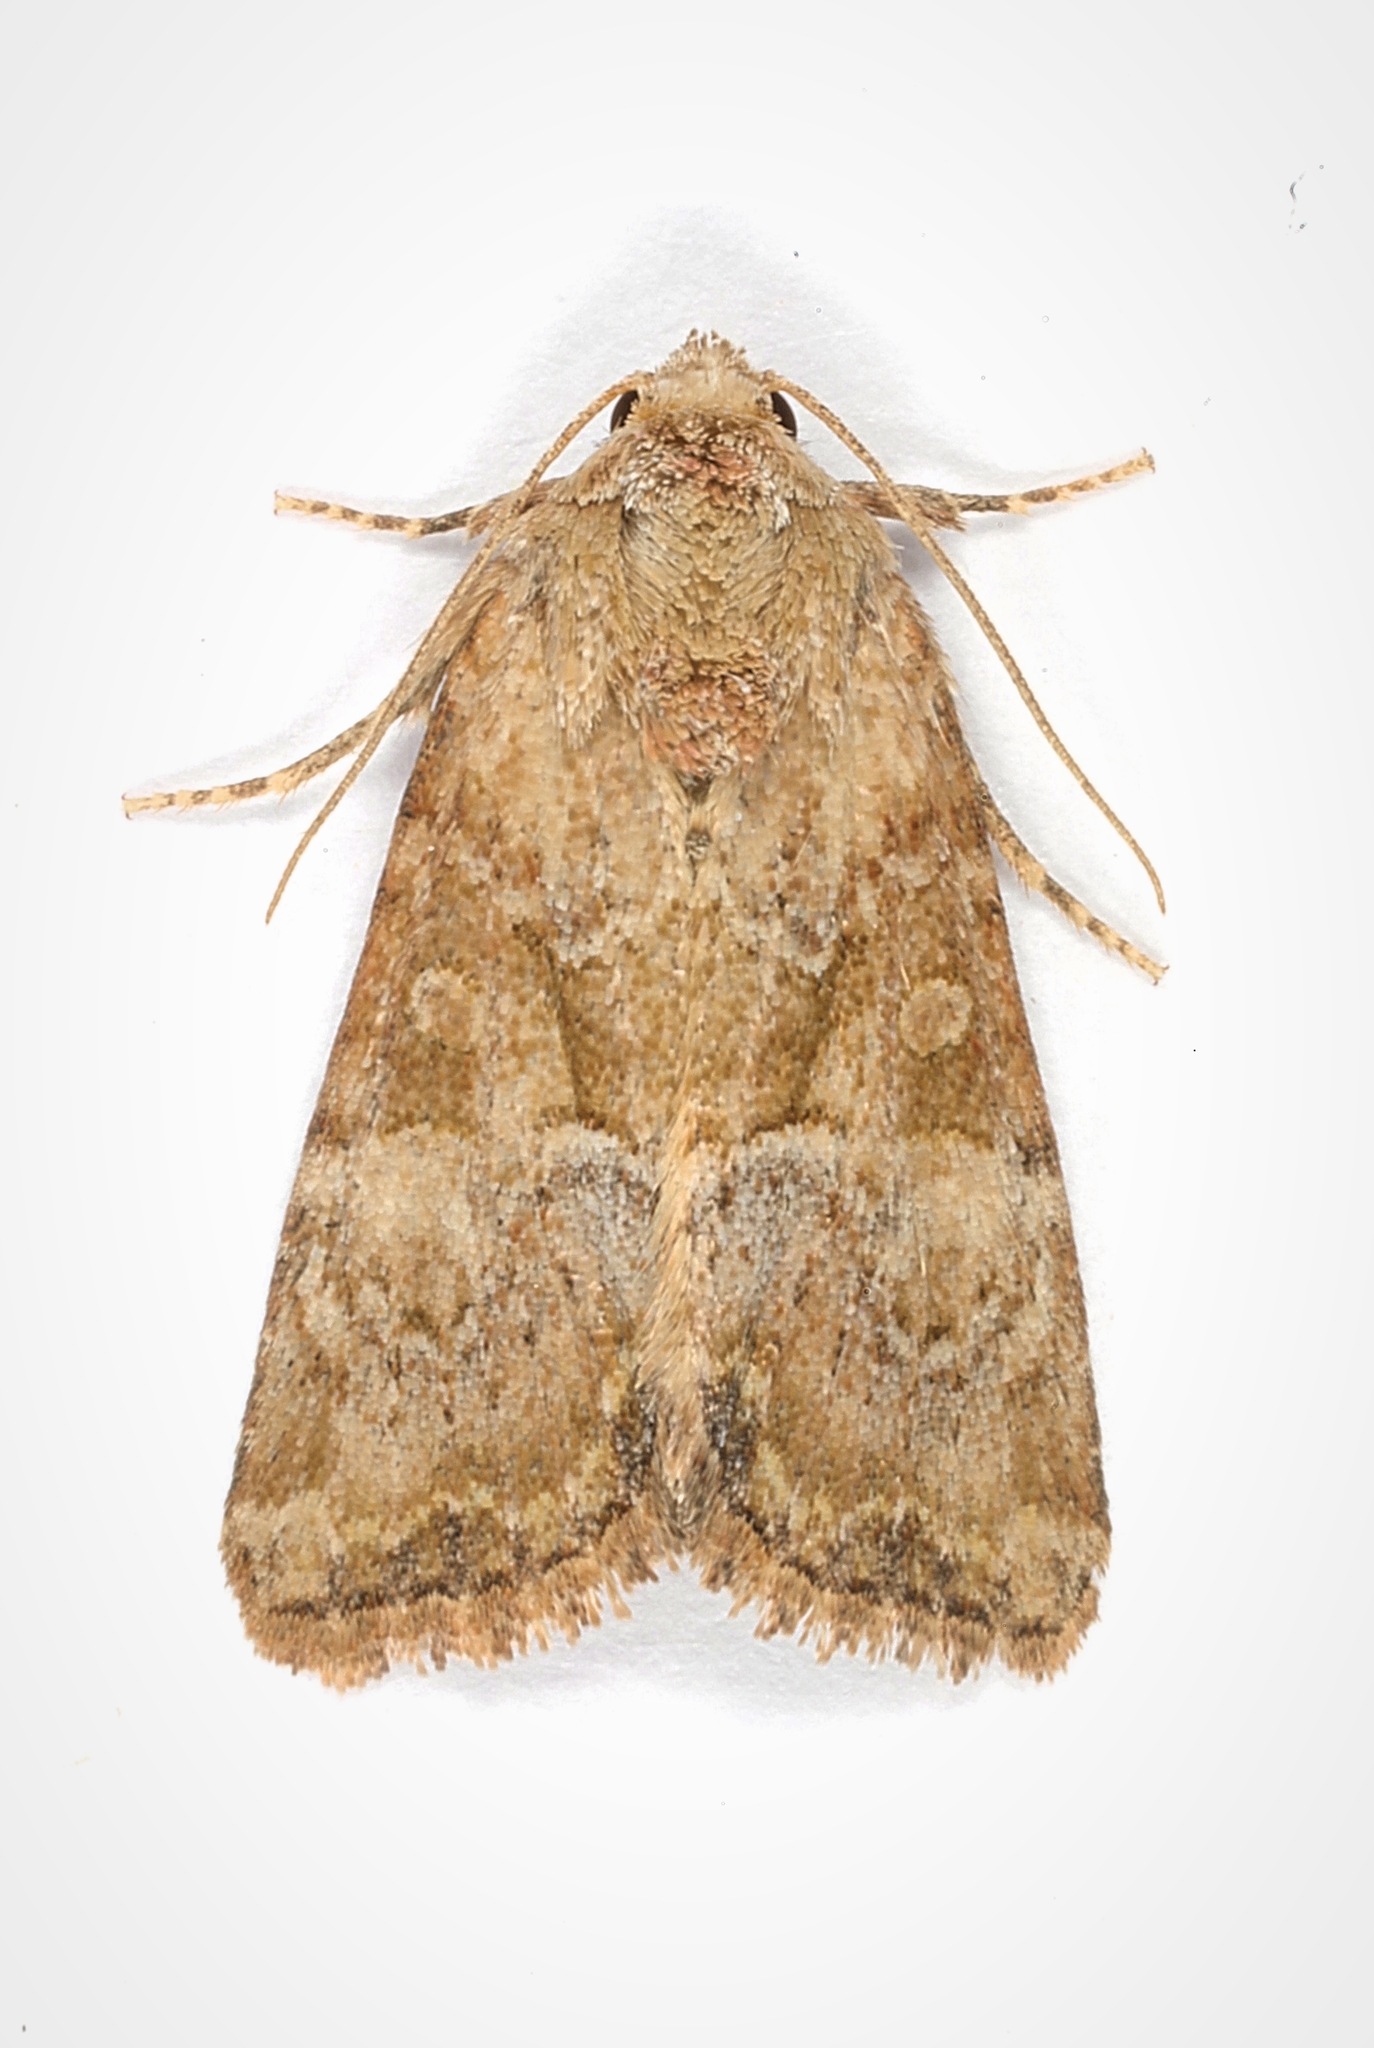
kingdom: Animalia
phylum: Arthropoda
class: Insecta
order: Lepidoptera
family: Noctuidae
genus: Mesoligia
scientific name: Mesoligia furuncula
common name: Cloaked minor
